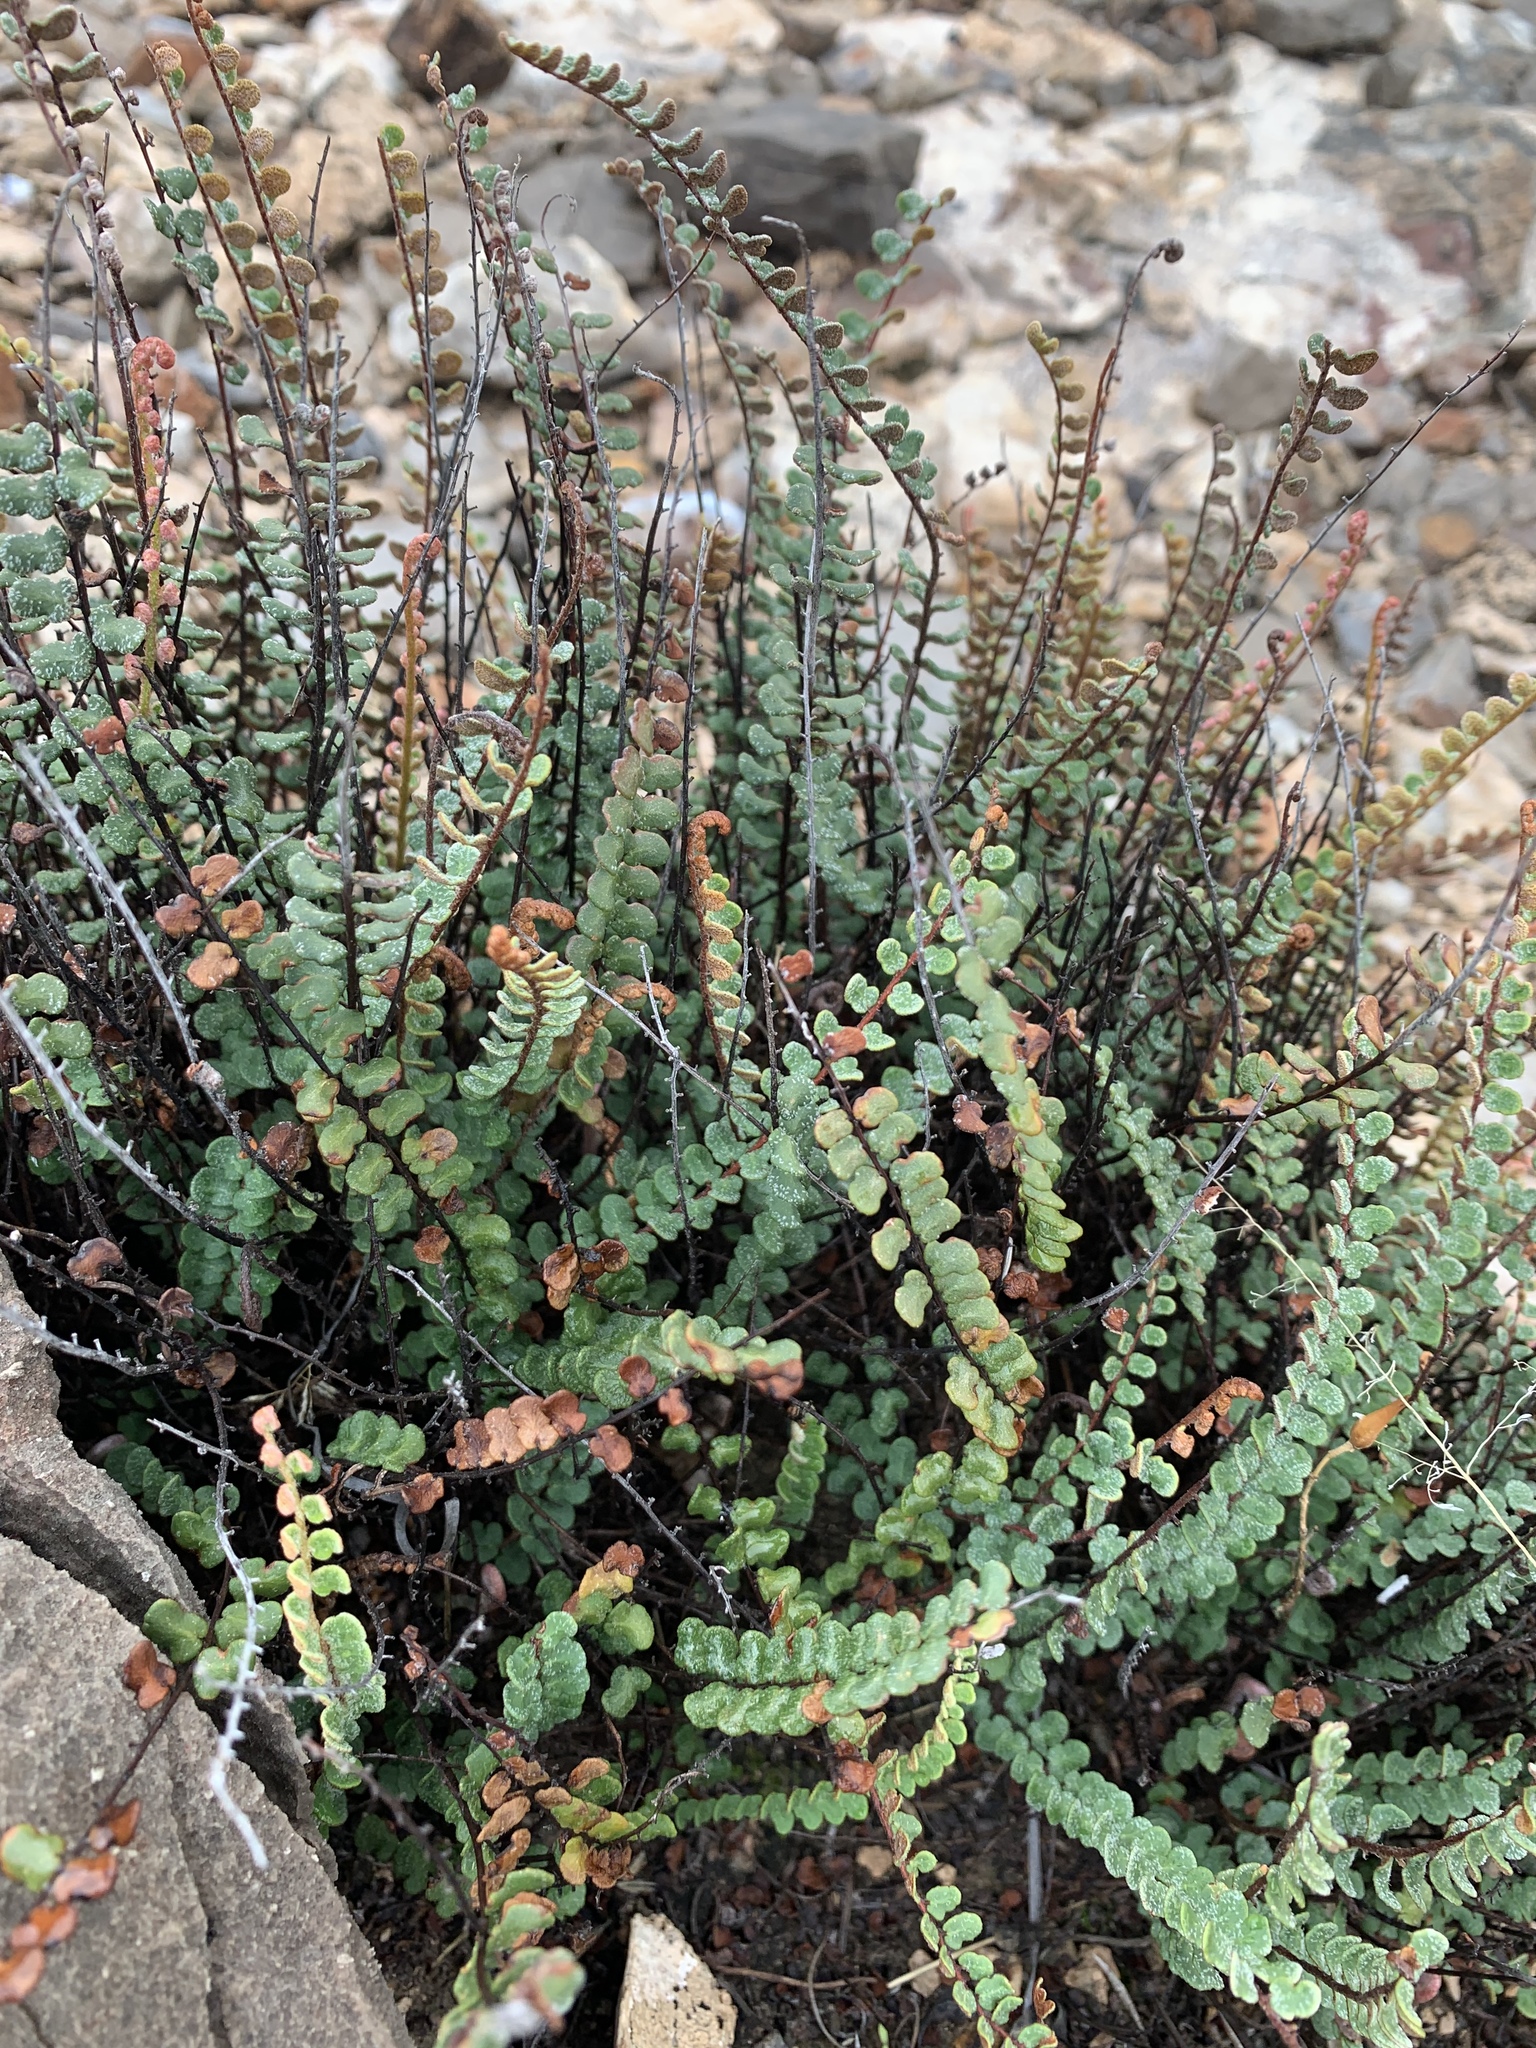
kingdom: Plantae
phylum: Tracheophyta
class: Polypodiopsida
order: Polypodiales
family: Pteridaceae
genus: Astrolepis
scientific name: Astrolepis cochisensis
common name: Scaly cloak fern
